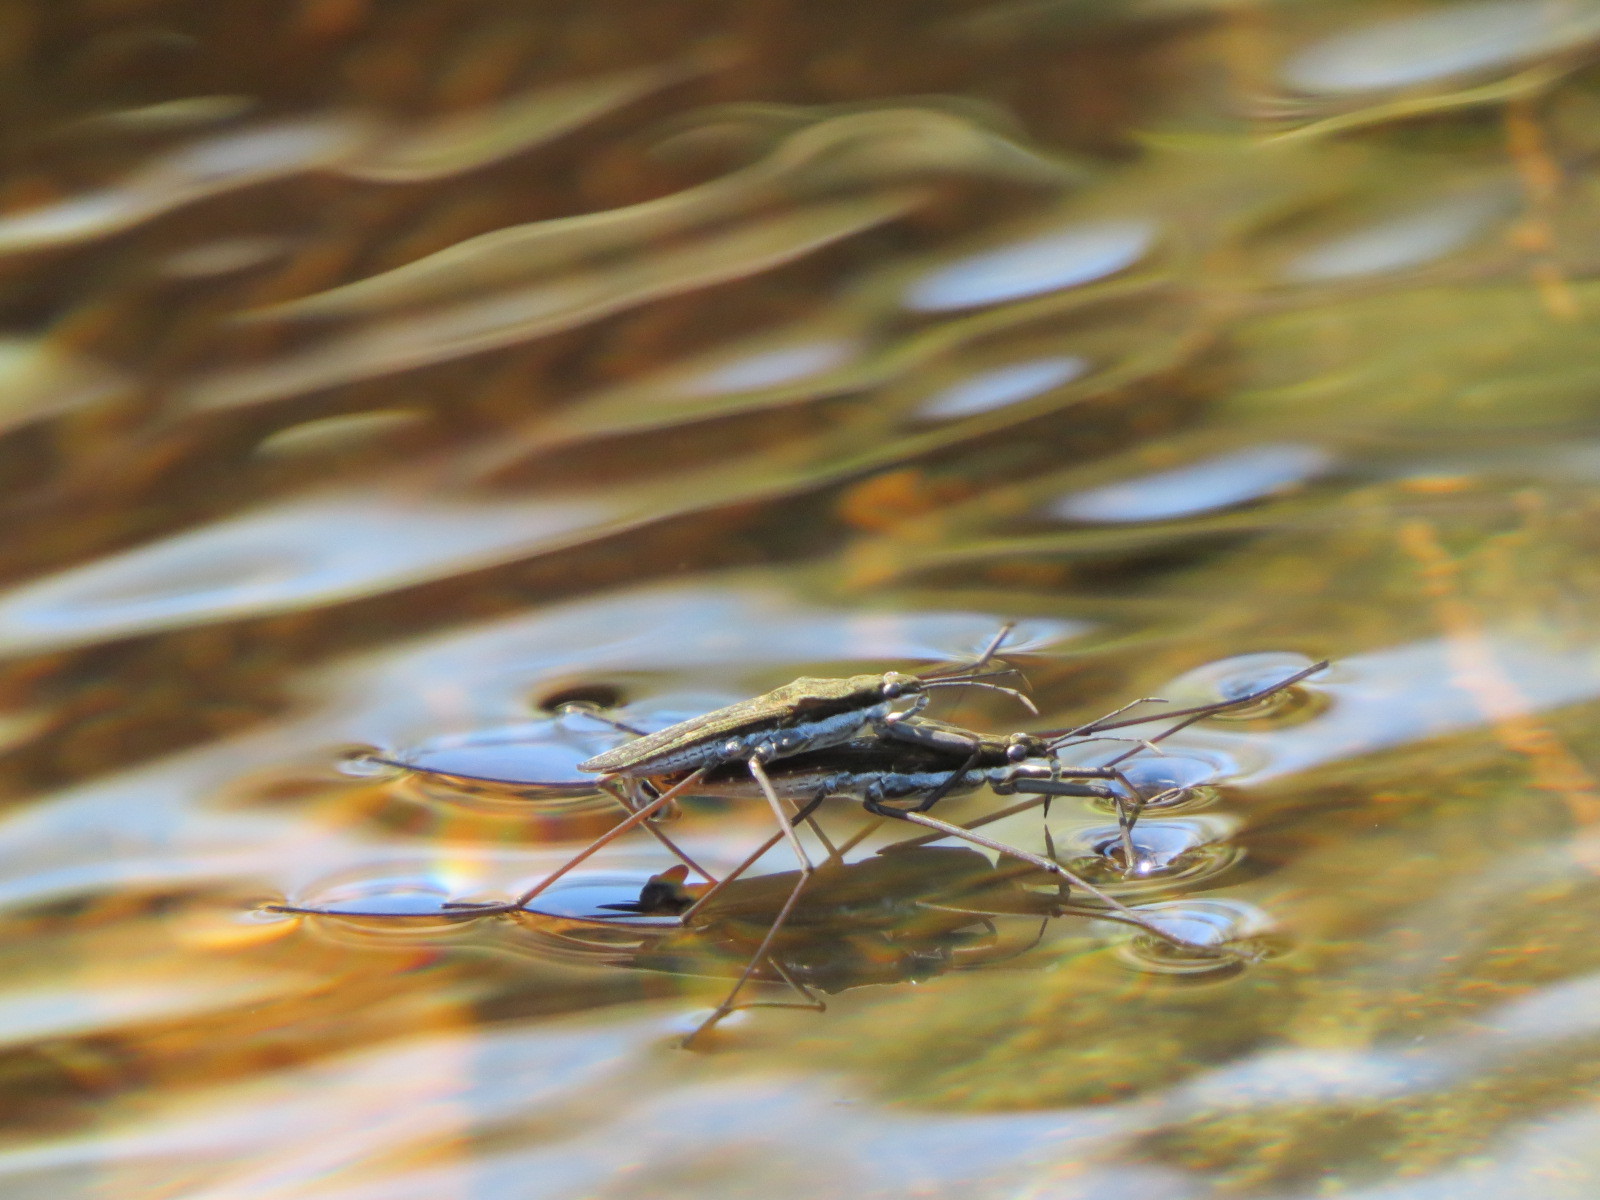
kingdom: Animalia
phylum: Arthropoda
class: Insecta
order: Hemiptera
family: Gerridae
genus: Aquarius
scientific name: Aquarius remigis
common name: Common water strider
